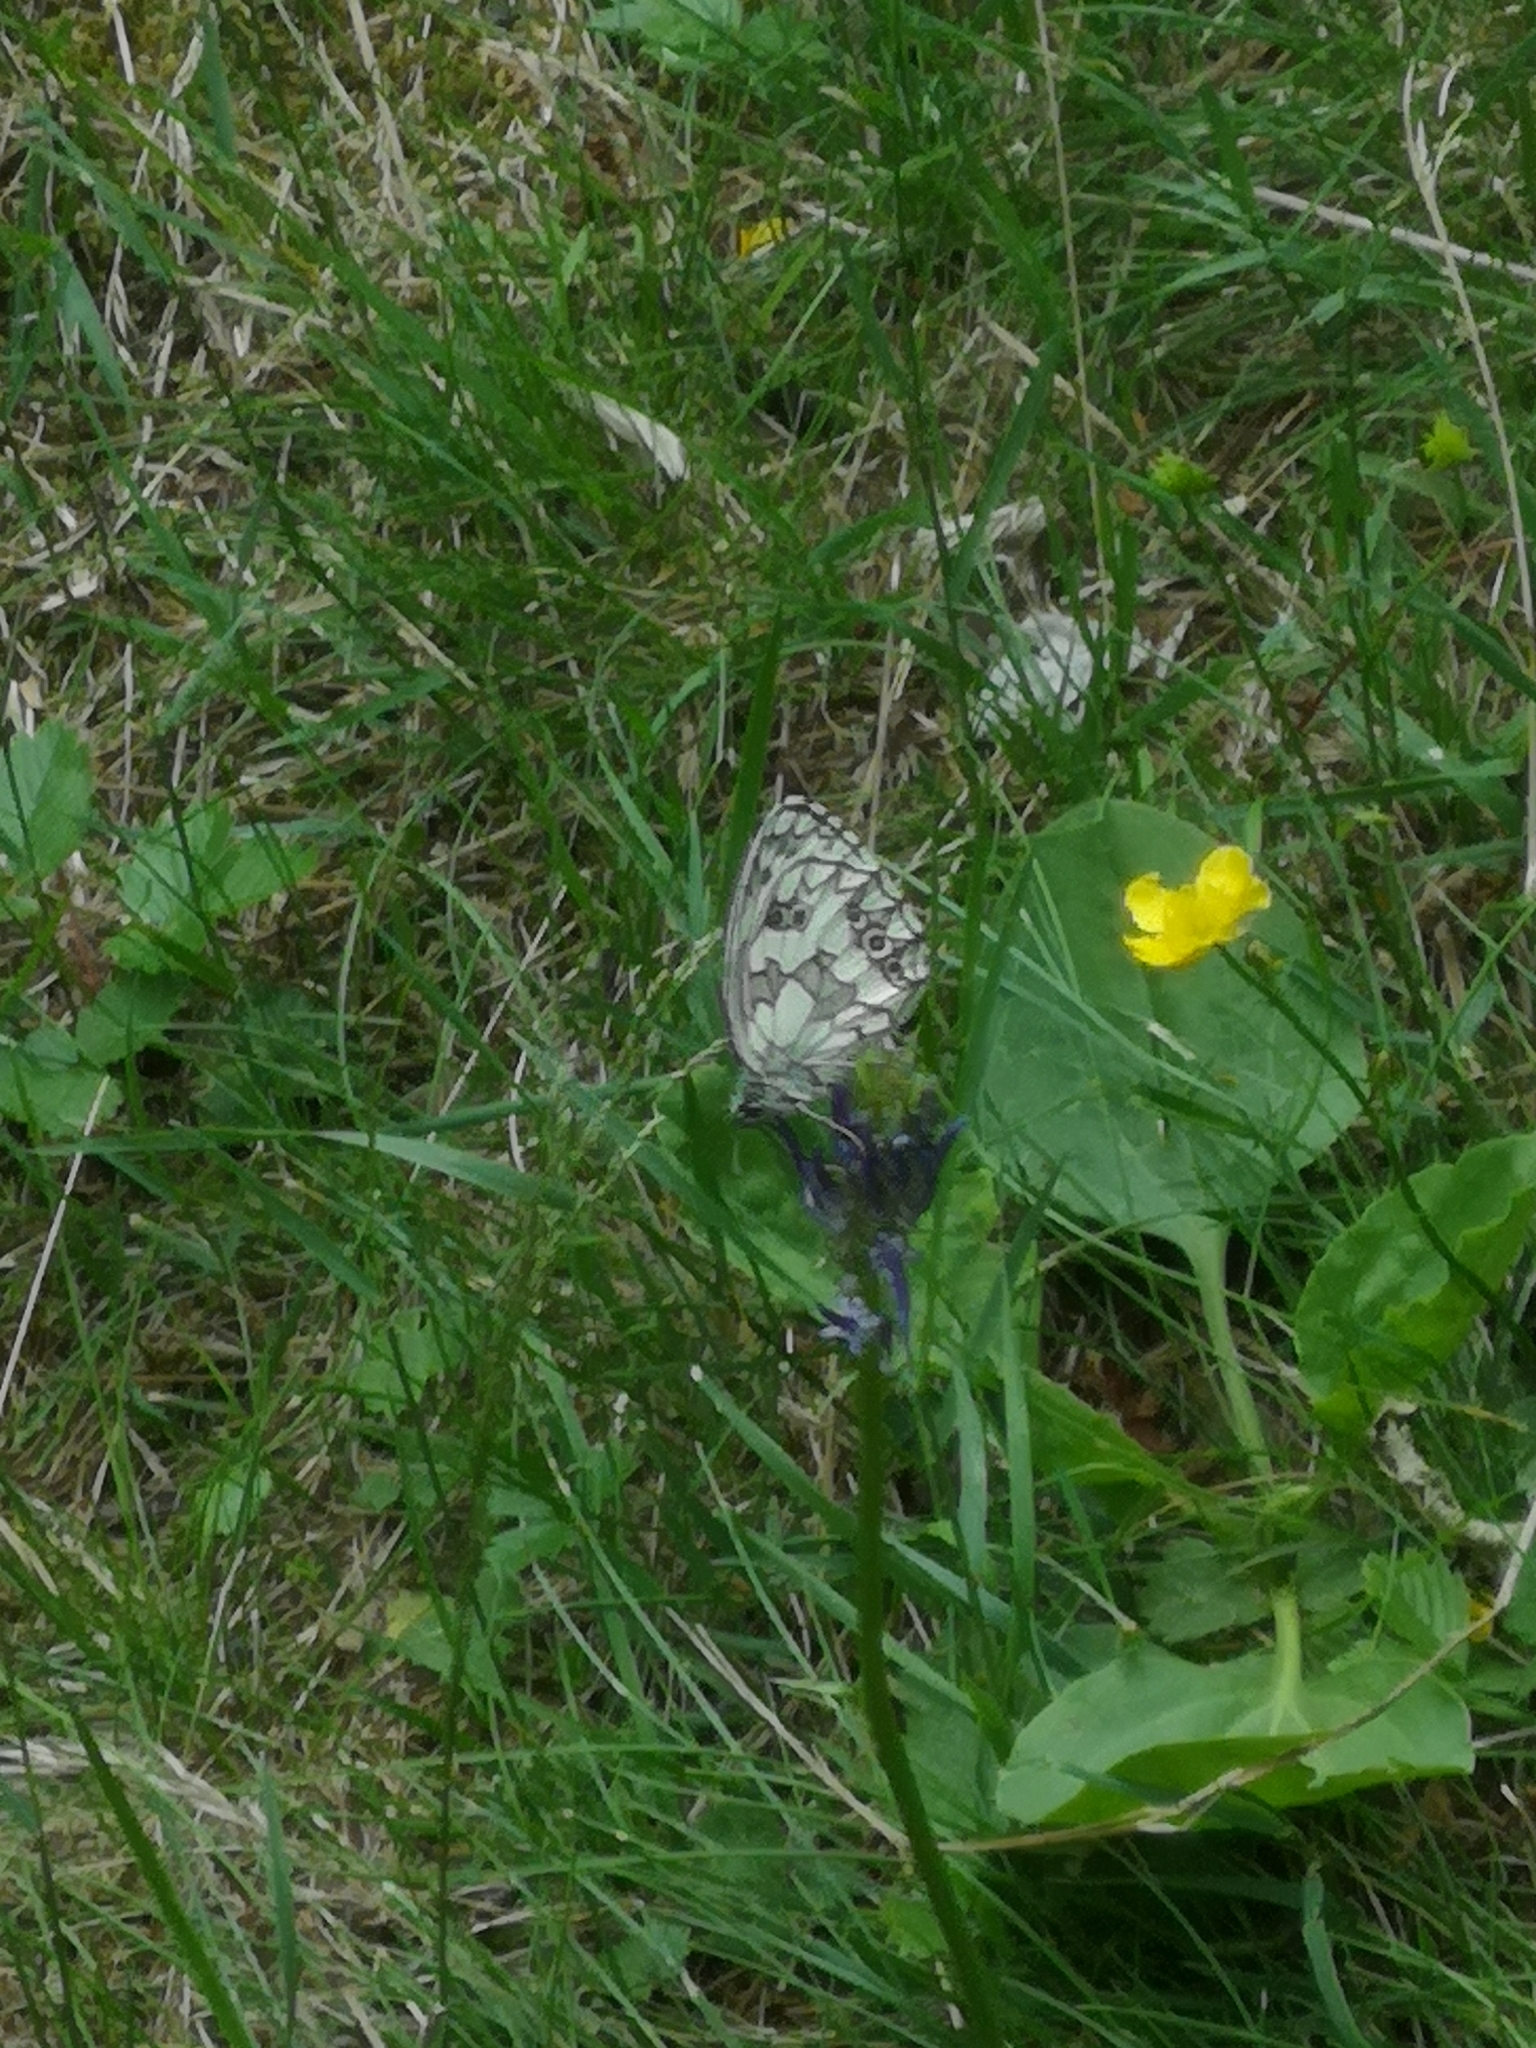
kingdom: Animalia
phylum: Arthropoda
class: Insecta
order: Lepidoptera
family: Nymphalidae
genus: Melanargia
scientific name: Melanargia galathea
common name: Marbled white
